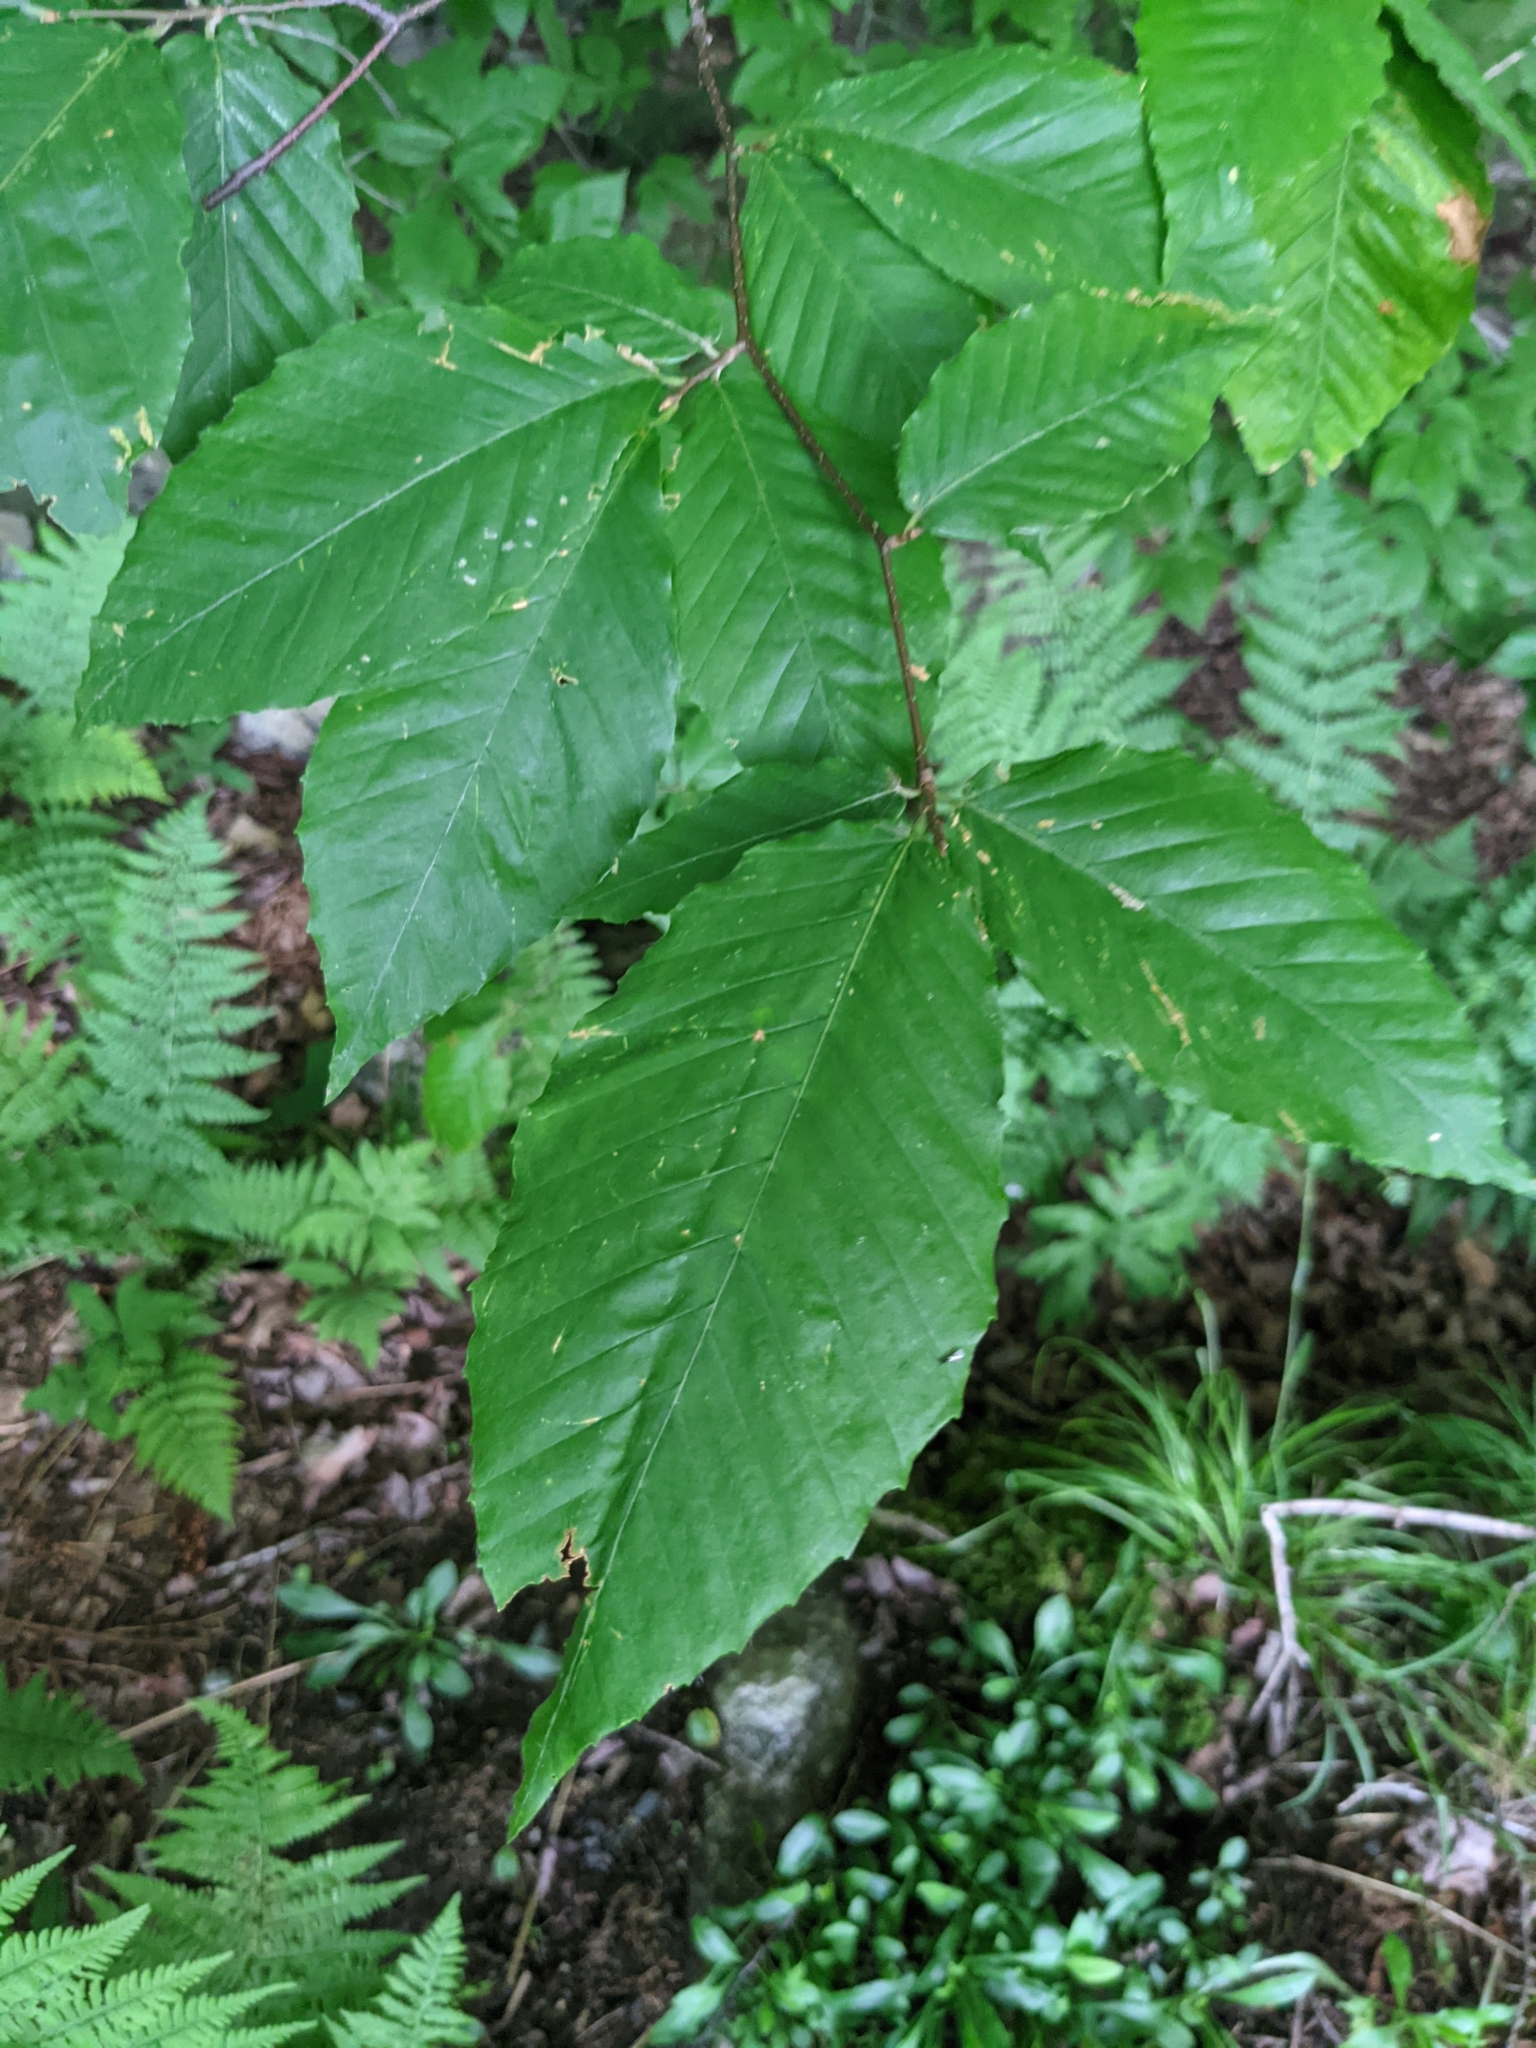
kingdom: Plantae
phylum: Tracheophyta
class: Magnoliopsida
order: Fagales
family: Fagaceae
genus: Fagus
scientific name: Fagus grandifolia
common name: American beech
